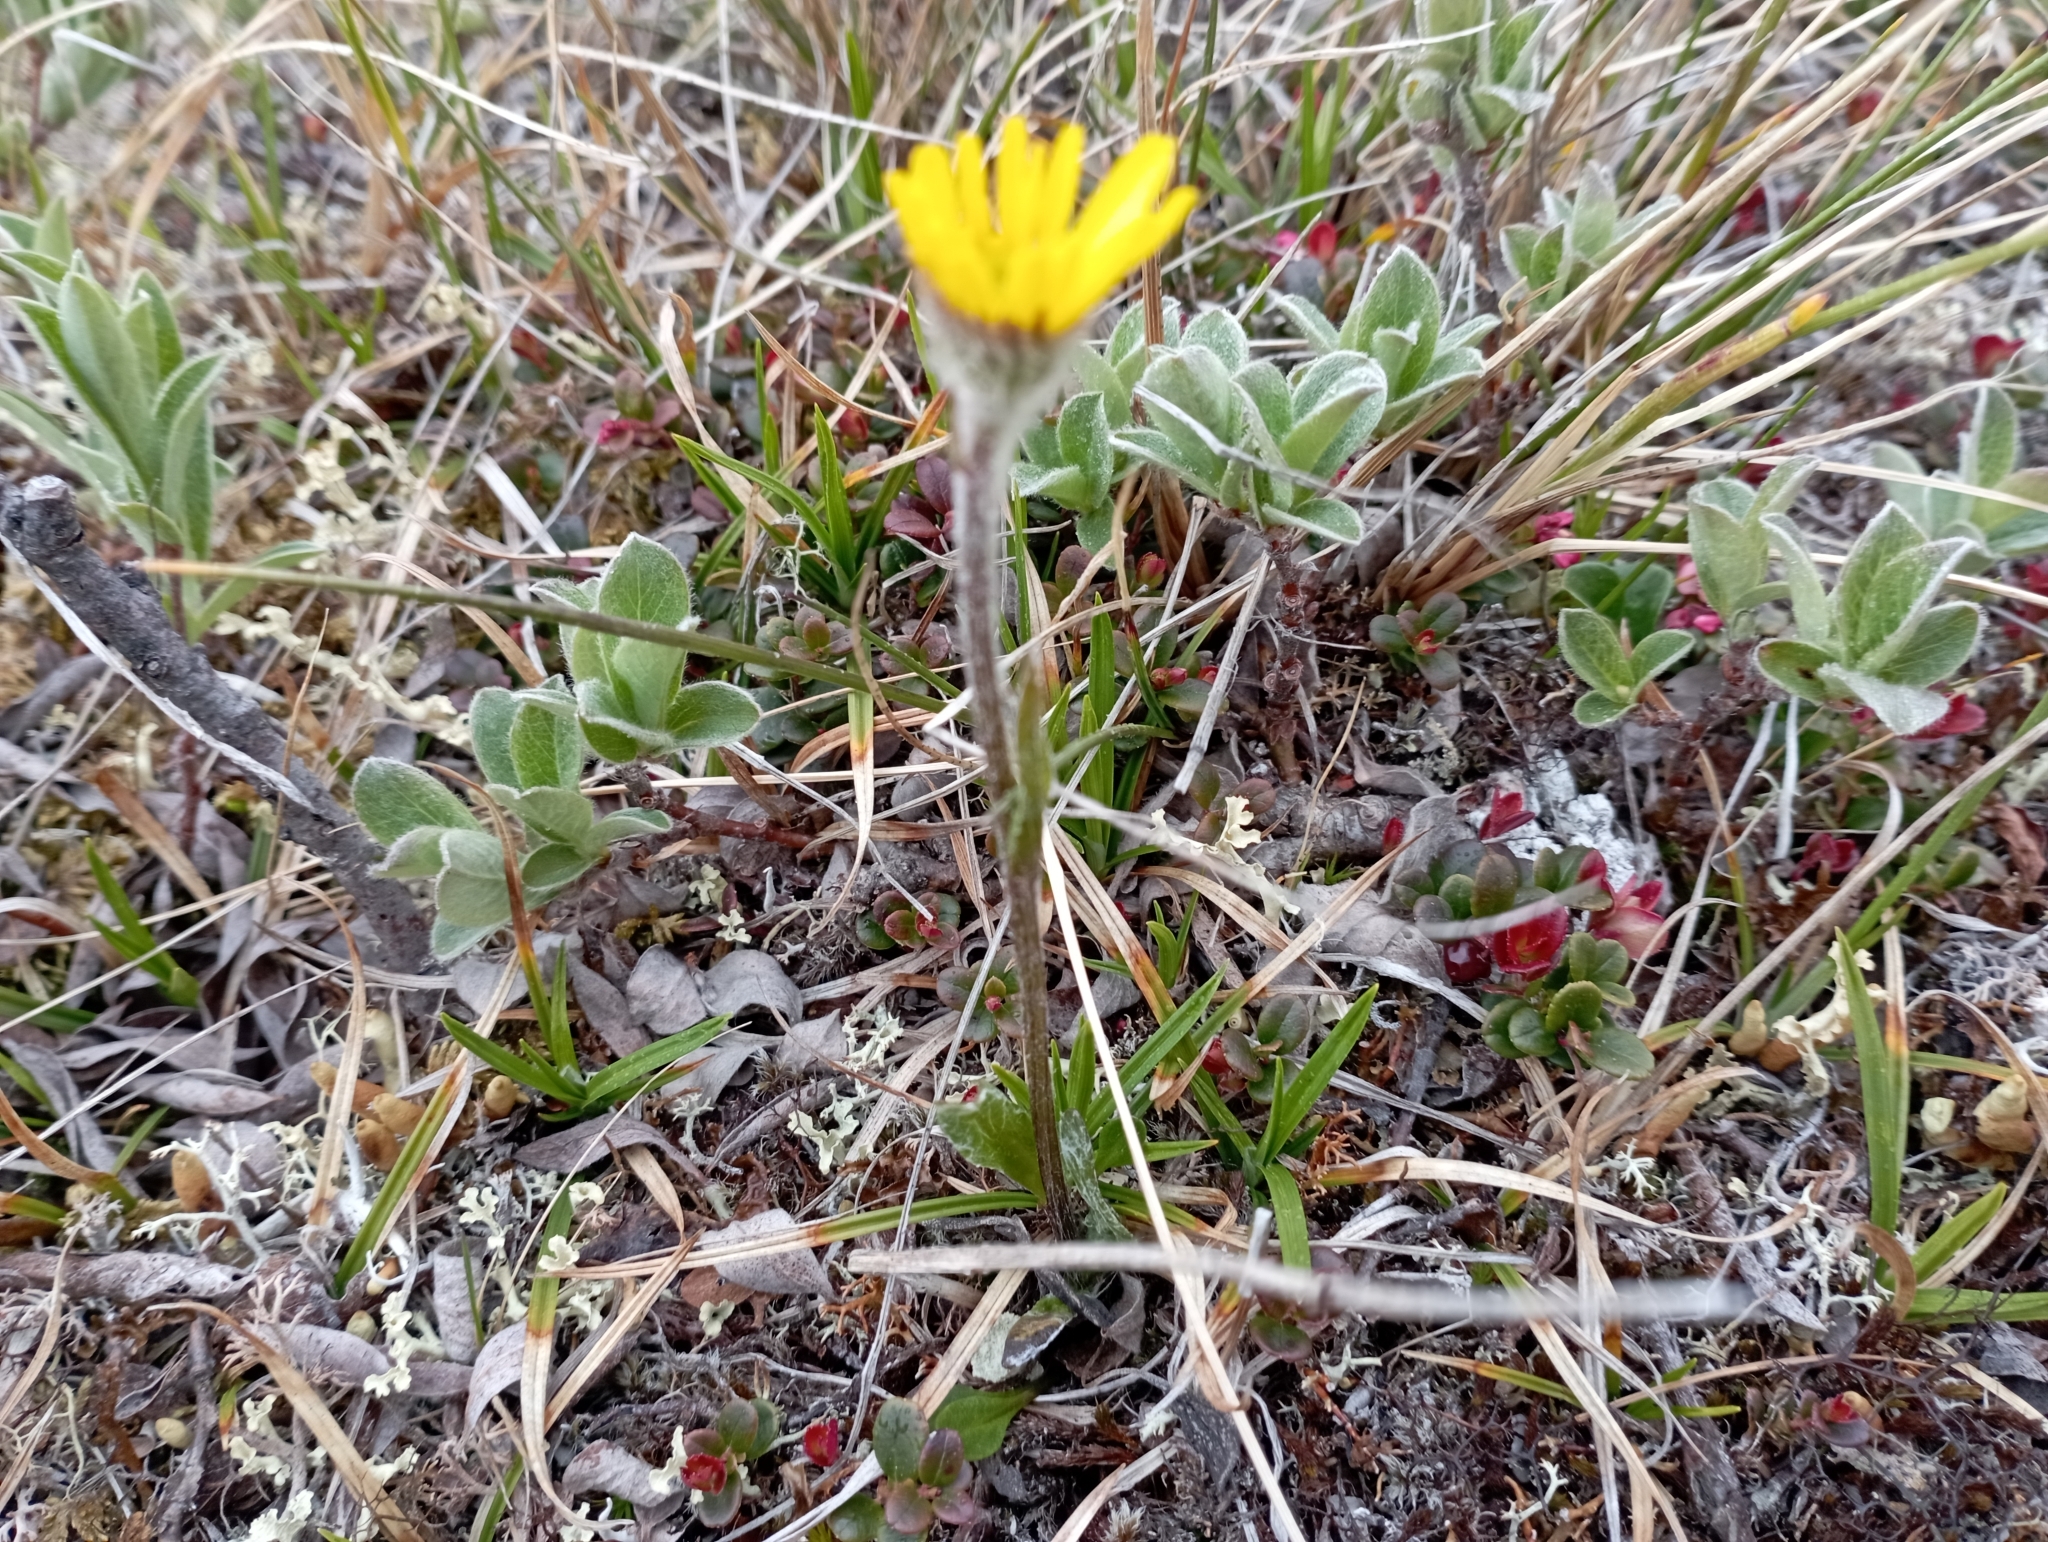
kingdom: Plantae
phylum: Tracheophyta
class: Magnoliopsida
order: Asterales
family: Asteraceae
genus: Tephroseris
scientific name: Tephroseris integrifolia
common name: Field fleawort
